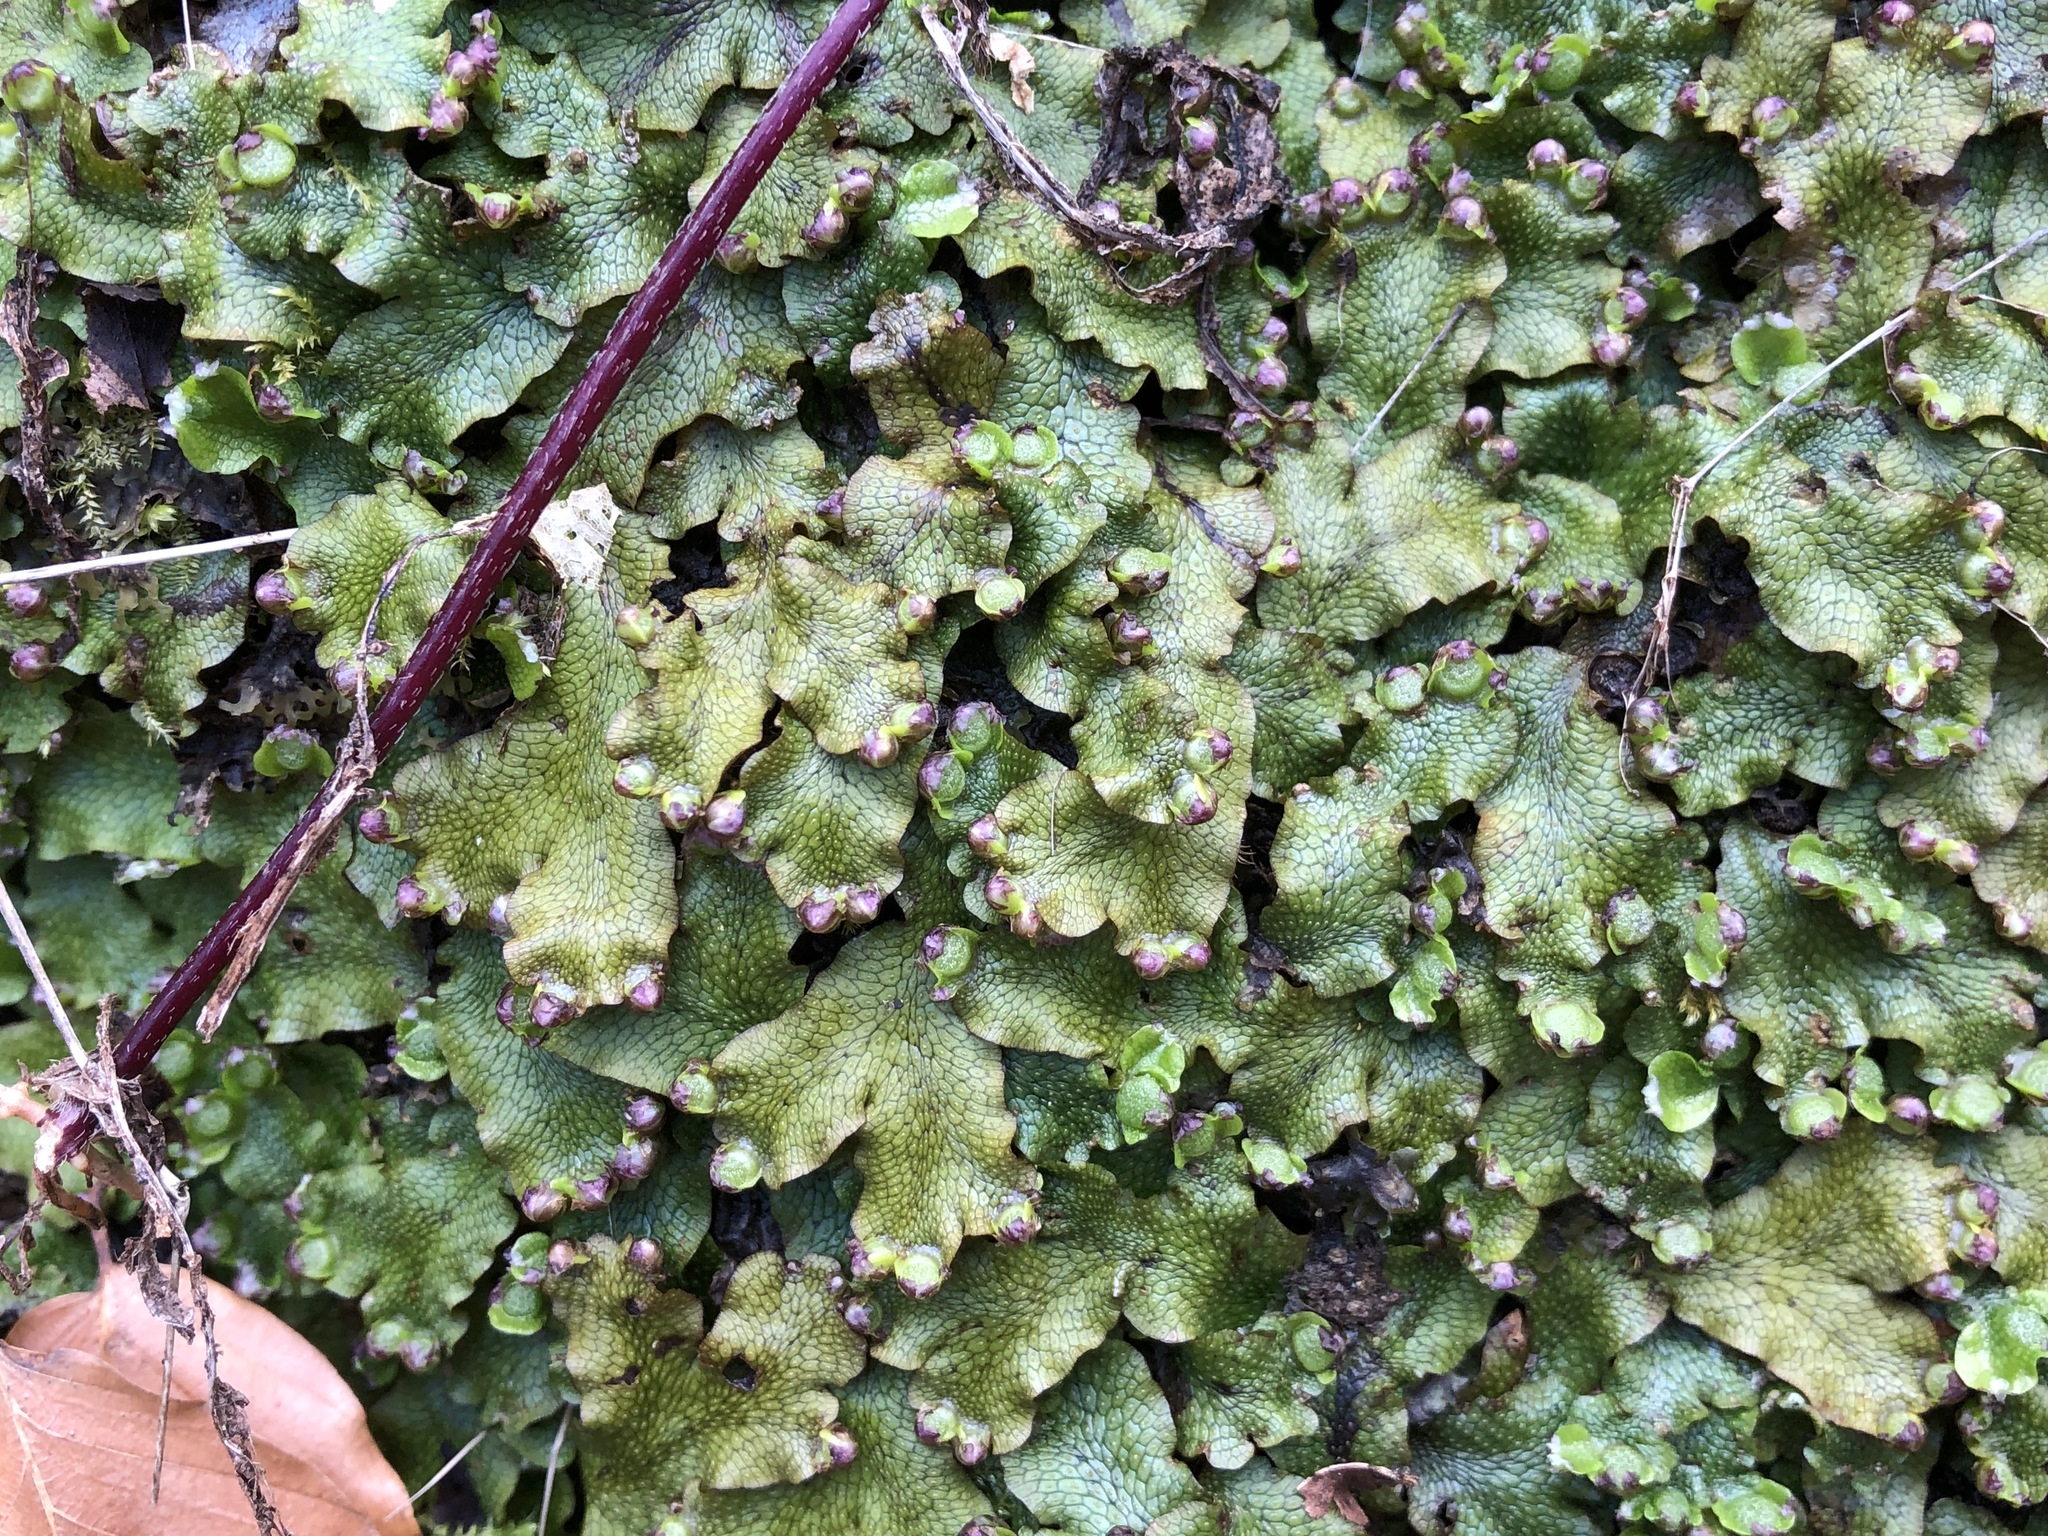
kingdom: Plantae
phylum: Marchantiophyta
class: Marchantiopsida
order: Marchantiales
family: Conocephalaceae
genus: Conocephalum
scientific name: Conocephalum salebrosum
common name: Cat-tongue liverwort
